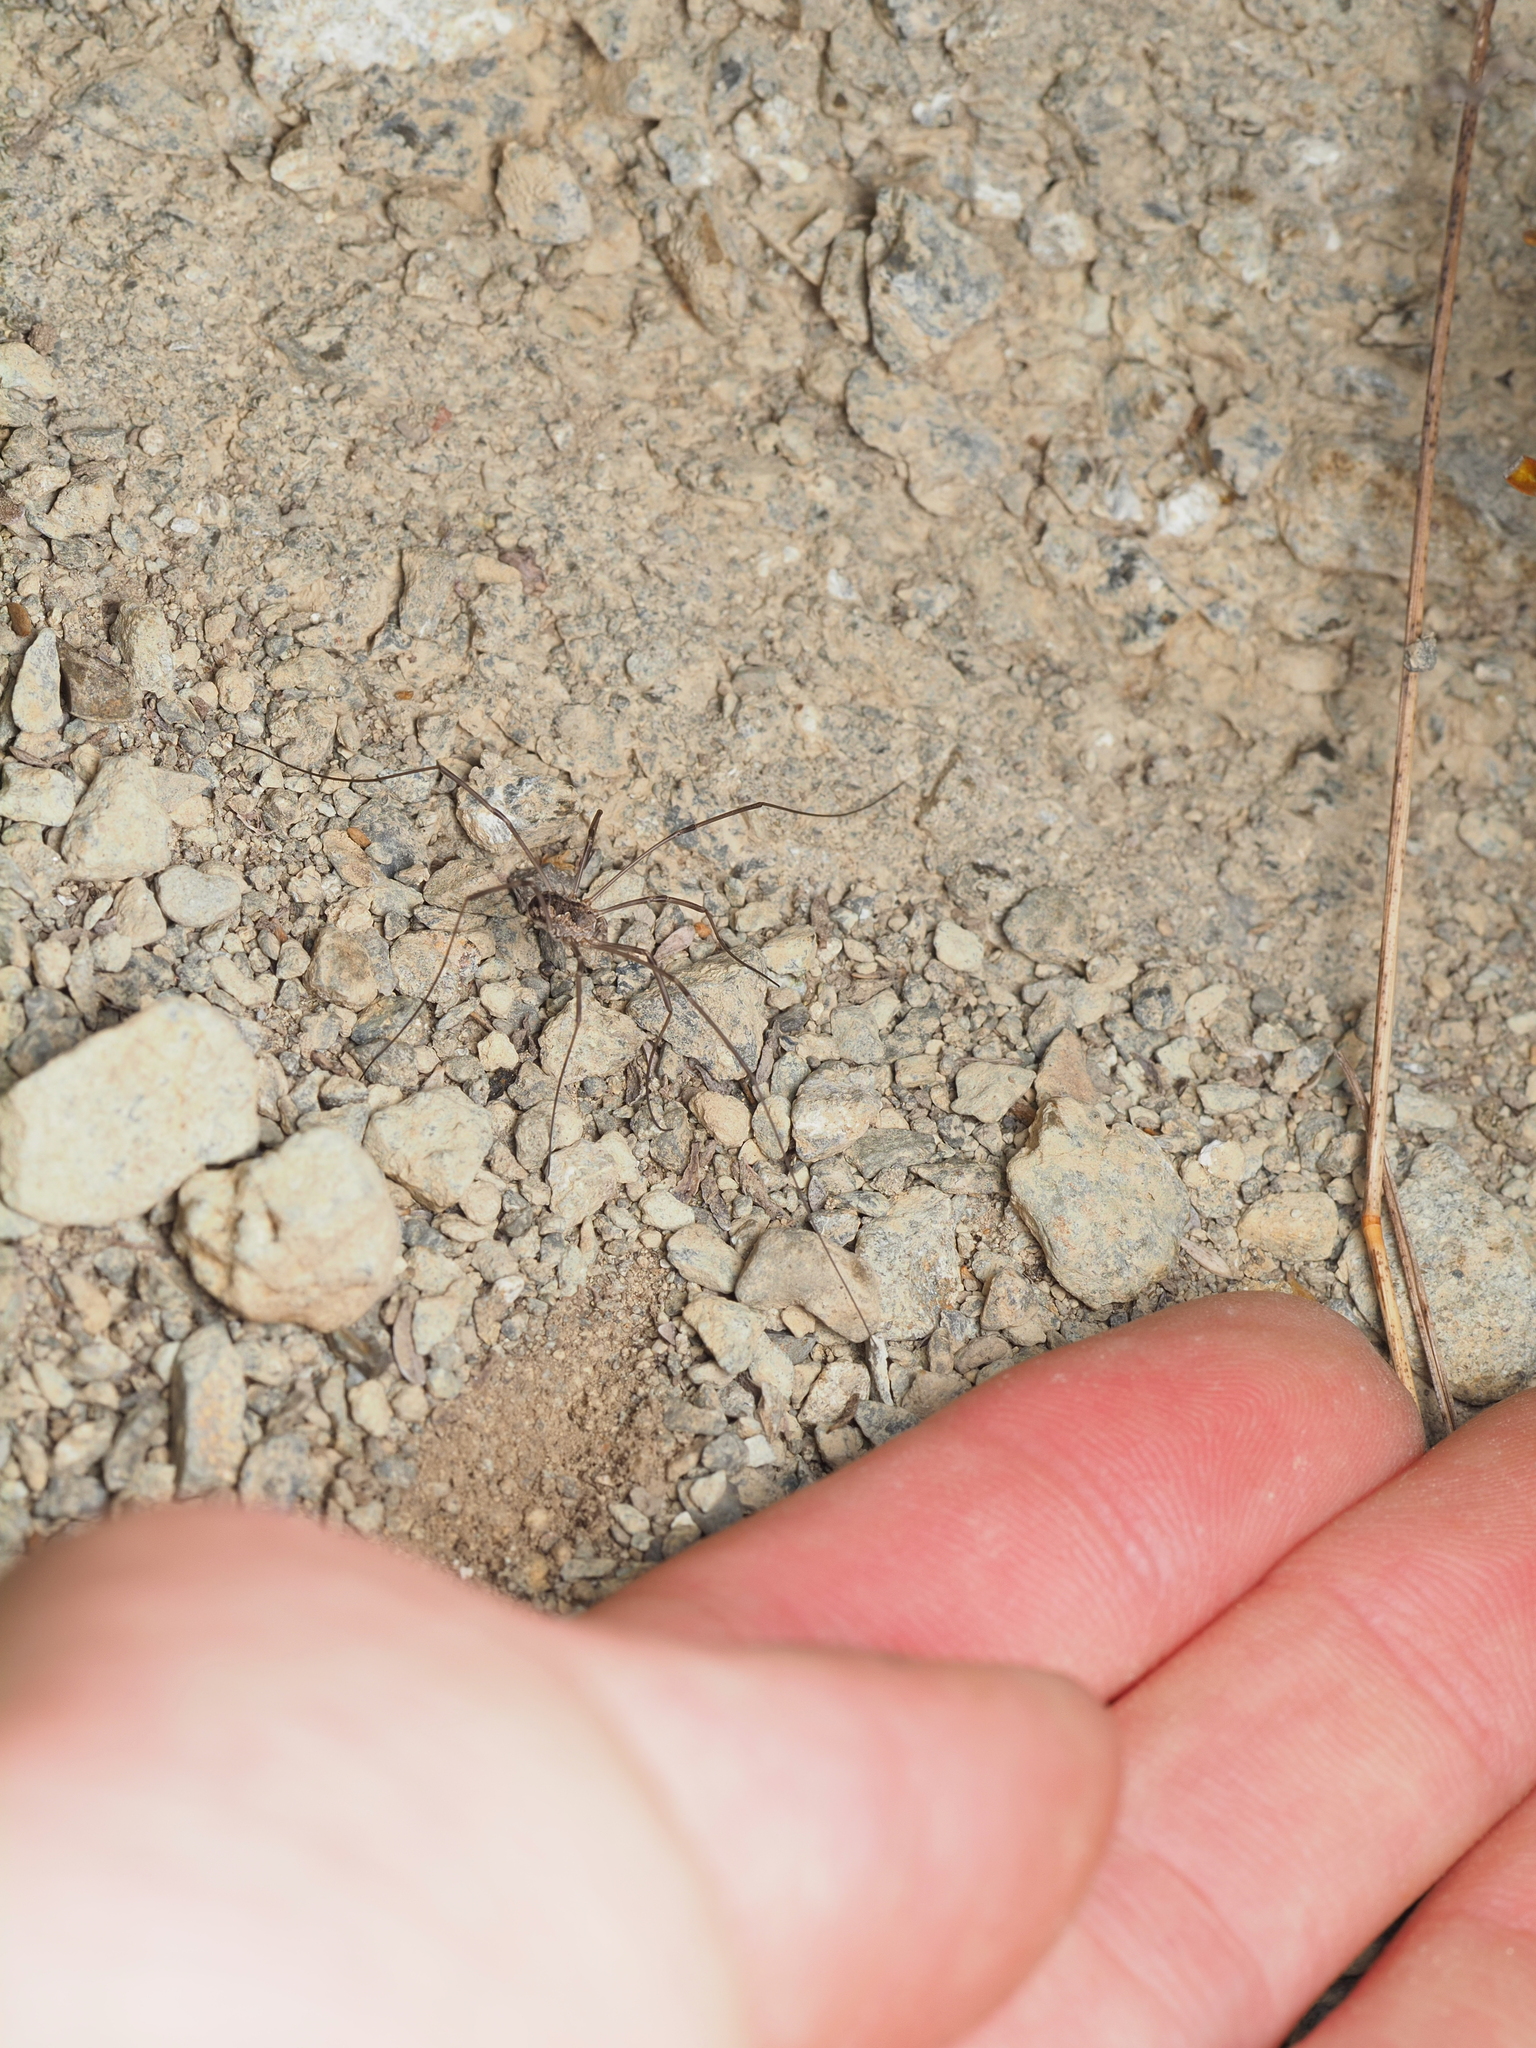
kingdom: Animalia
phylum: Arthropoda
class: Arachnida
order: Opiliones
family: Phalangiidae
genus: Phalangium
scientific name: Phalangium opilio
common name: Daddy longleg
